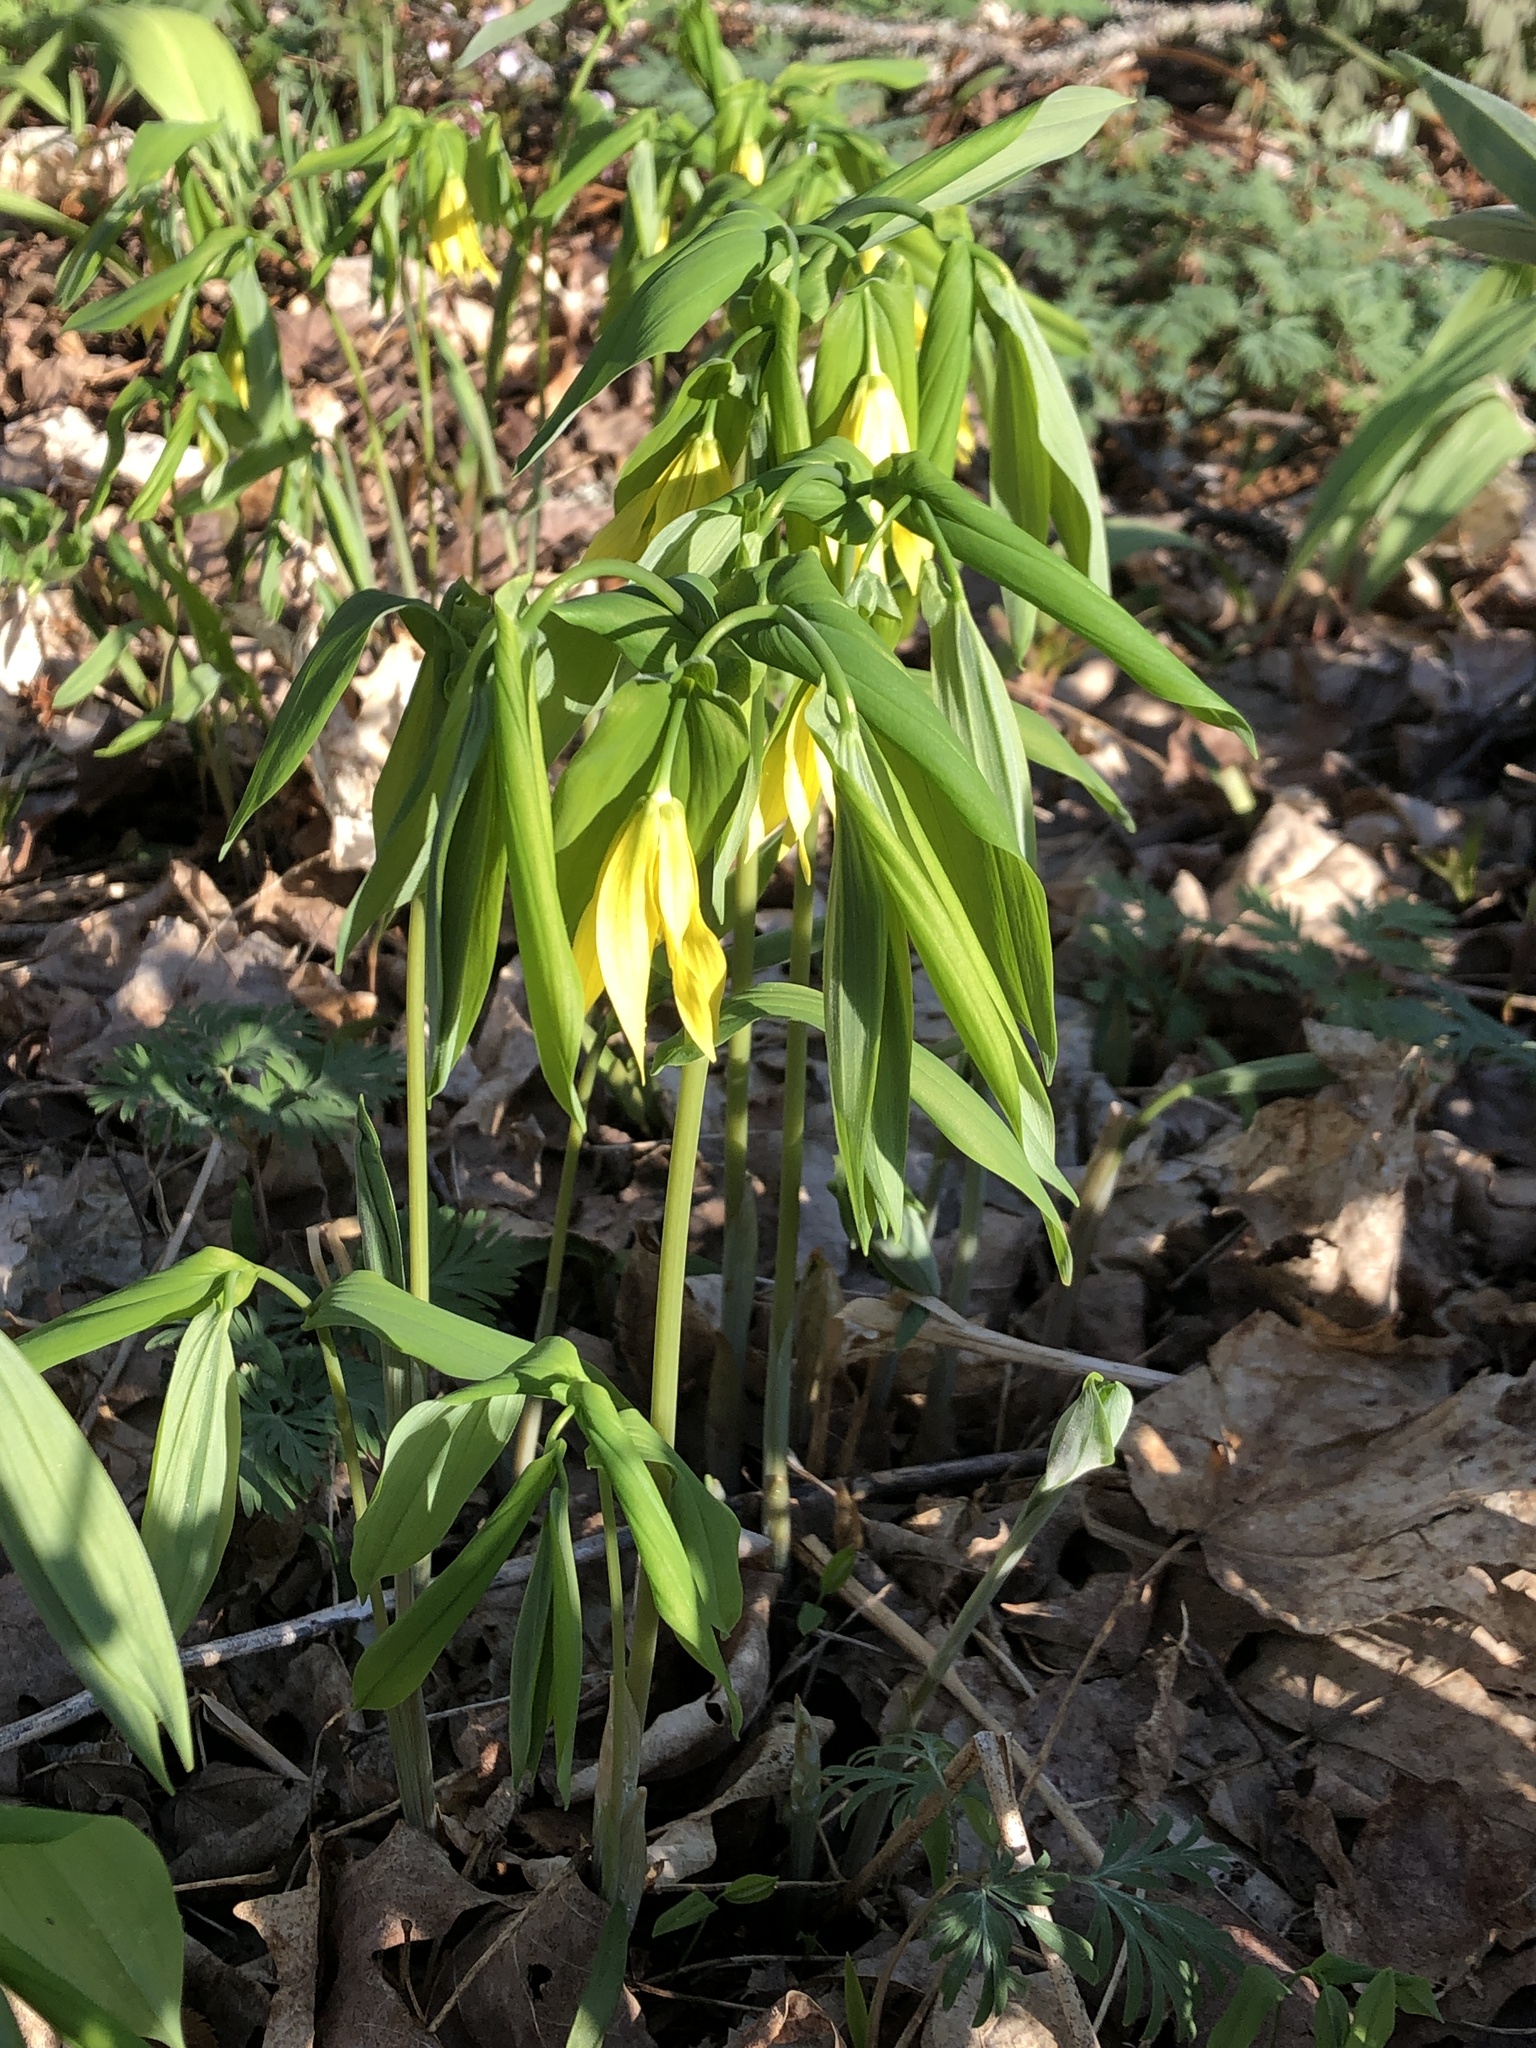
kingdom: Plantae
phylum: Tracheophyta
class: Liliopsida
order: Liliales
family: Colchicaceae
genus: Uvularia
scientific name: Uvularia grandiflora
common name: Bellwort
